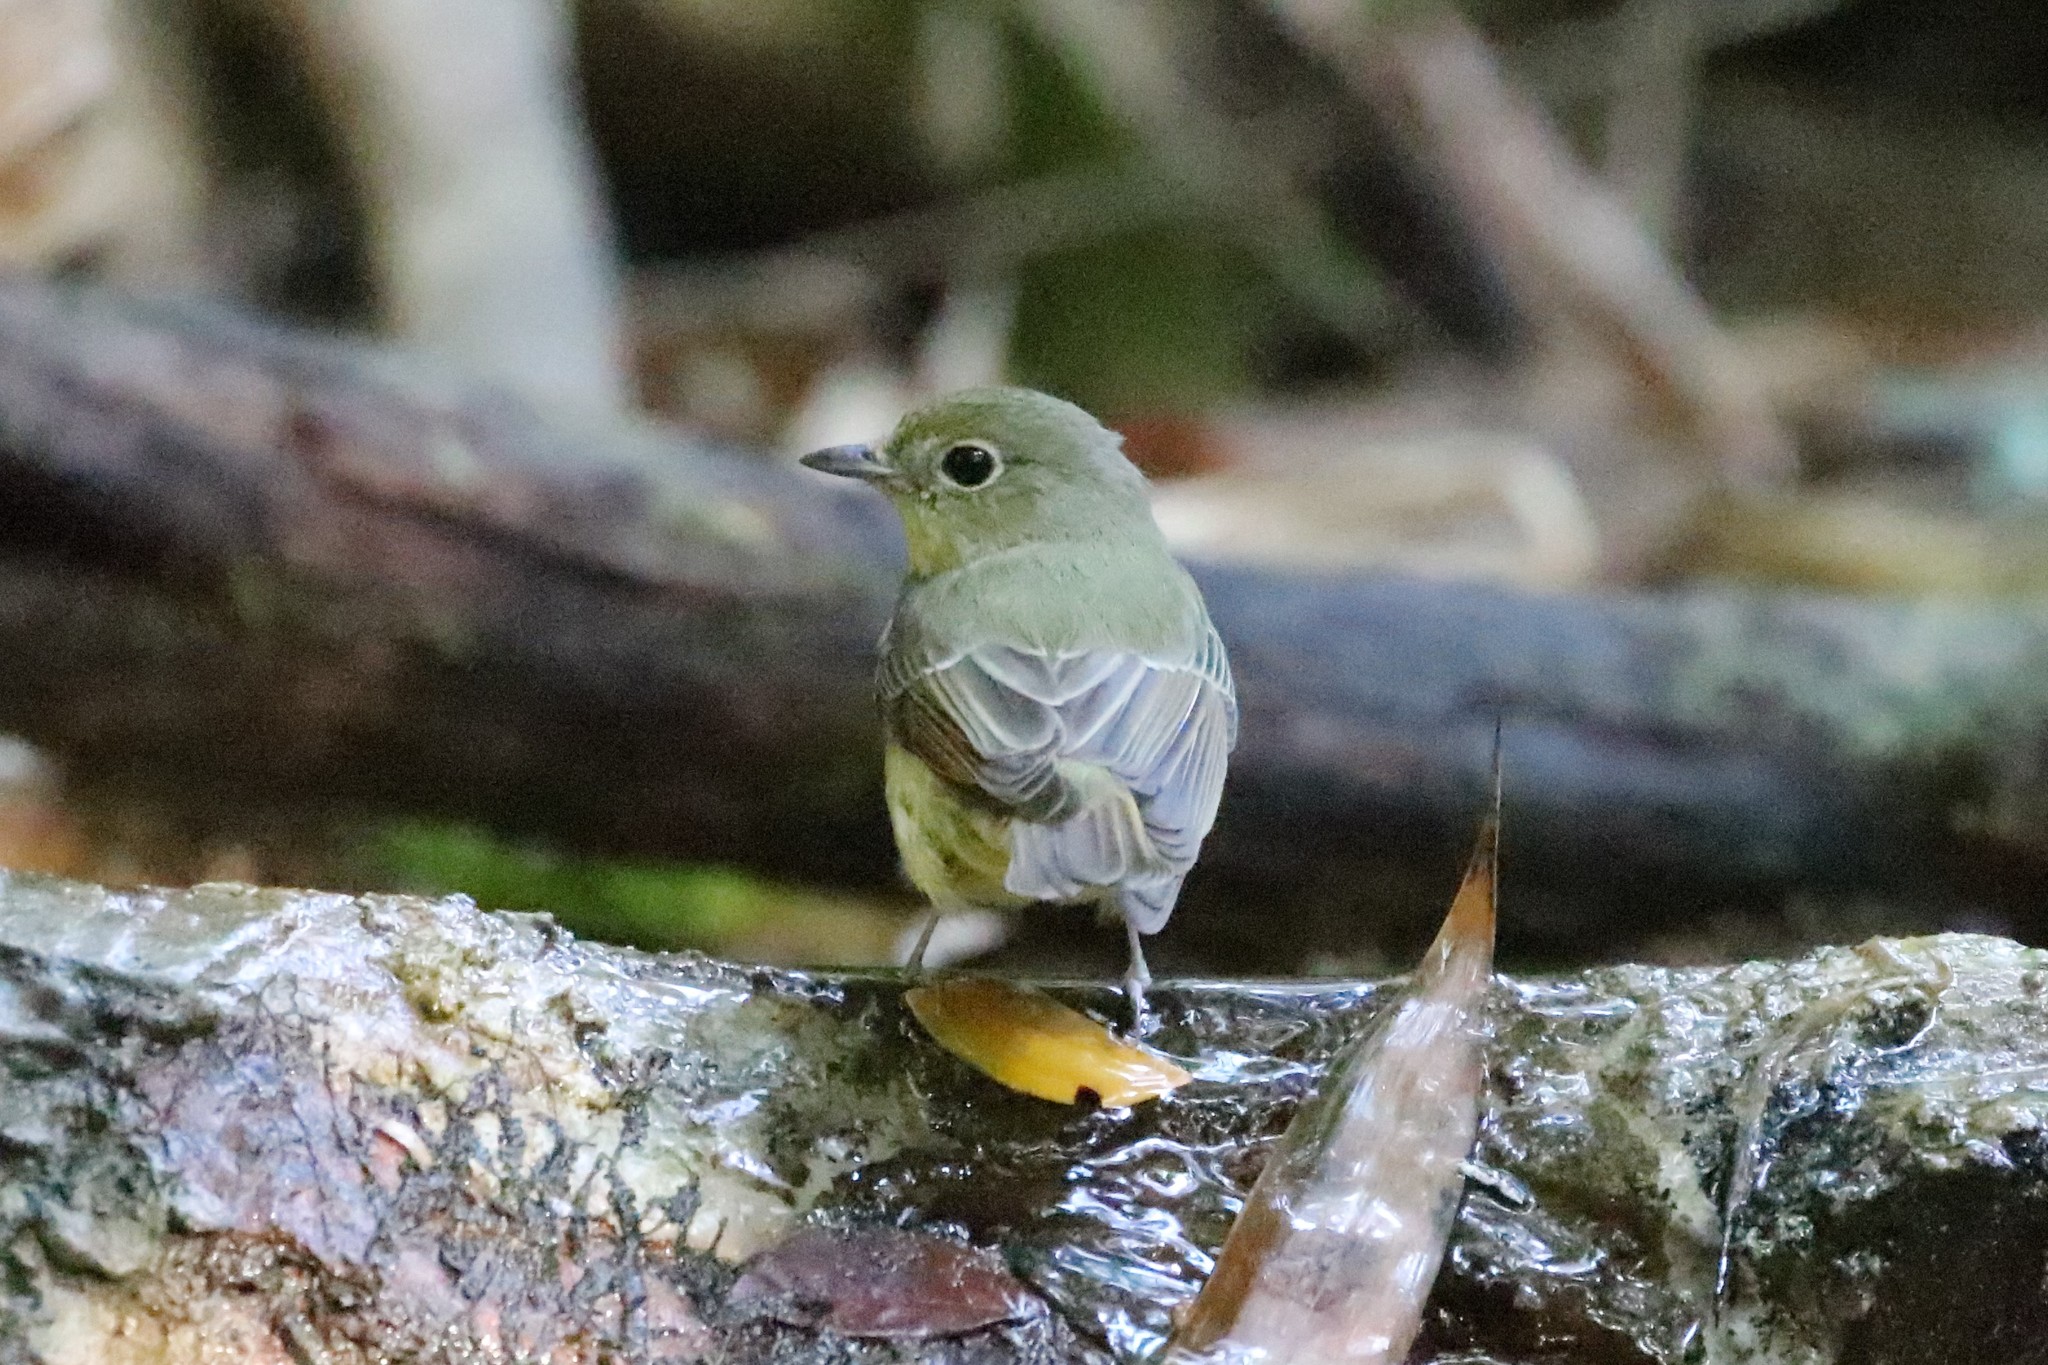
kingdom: Animalia
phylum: Chordata
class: Aves
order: Passeriformes
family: Muscicapidae
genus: Ficedula
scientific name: Ficedula elisae
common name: Green-backed flycatcher
